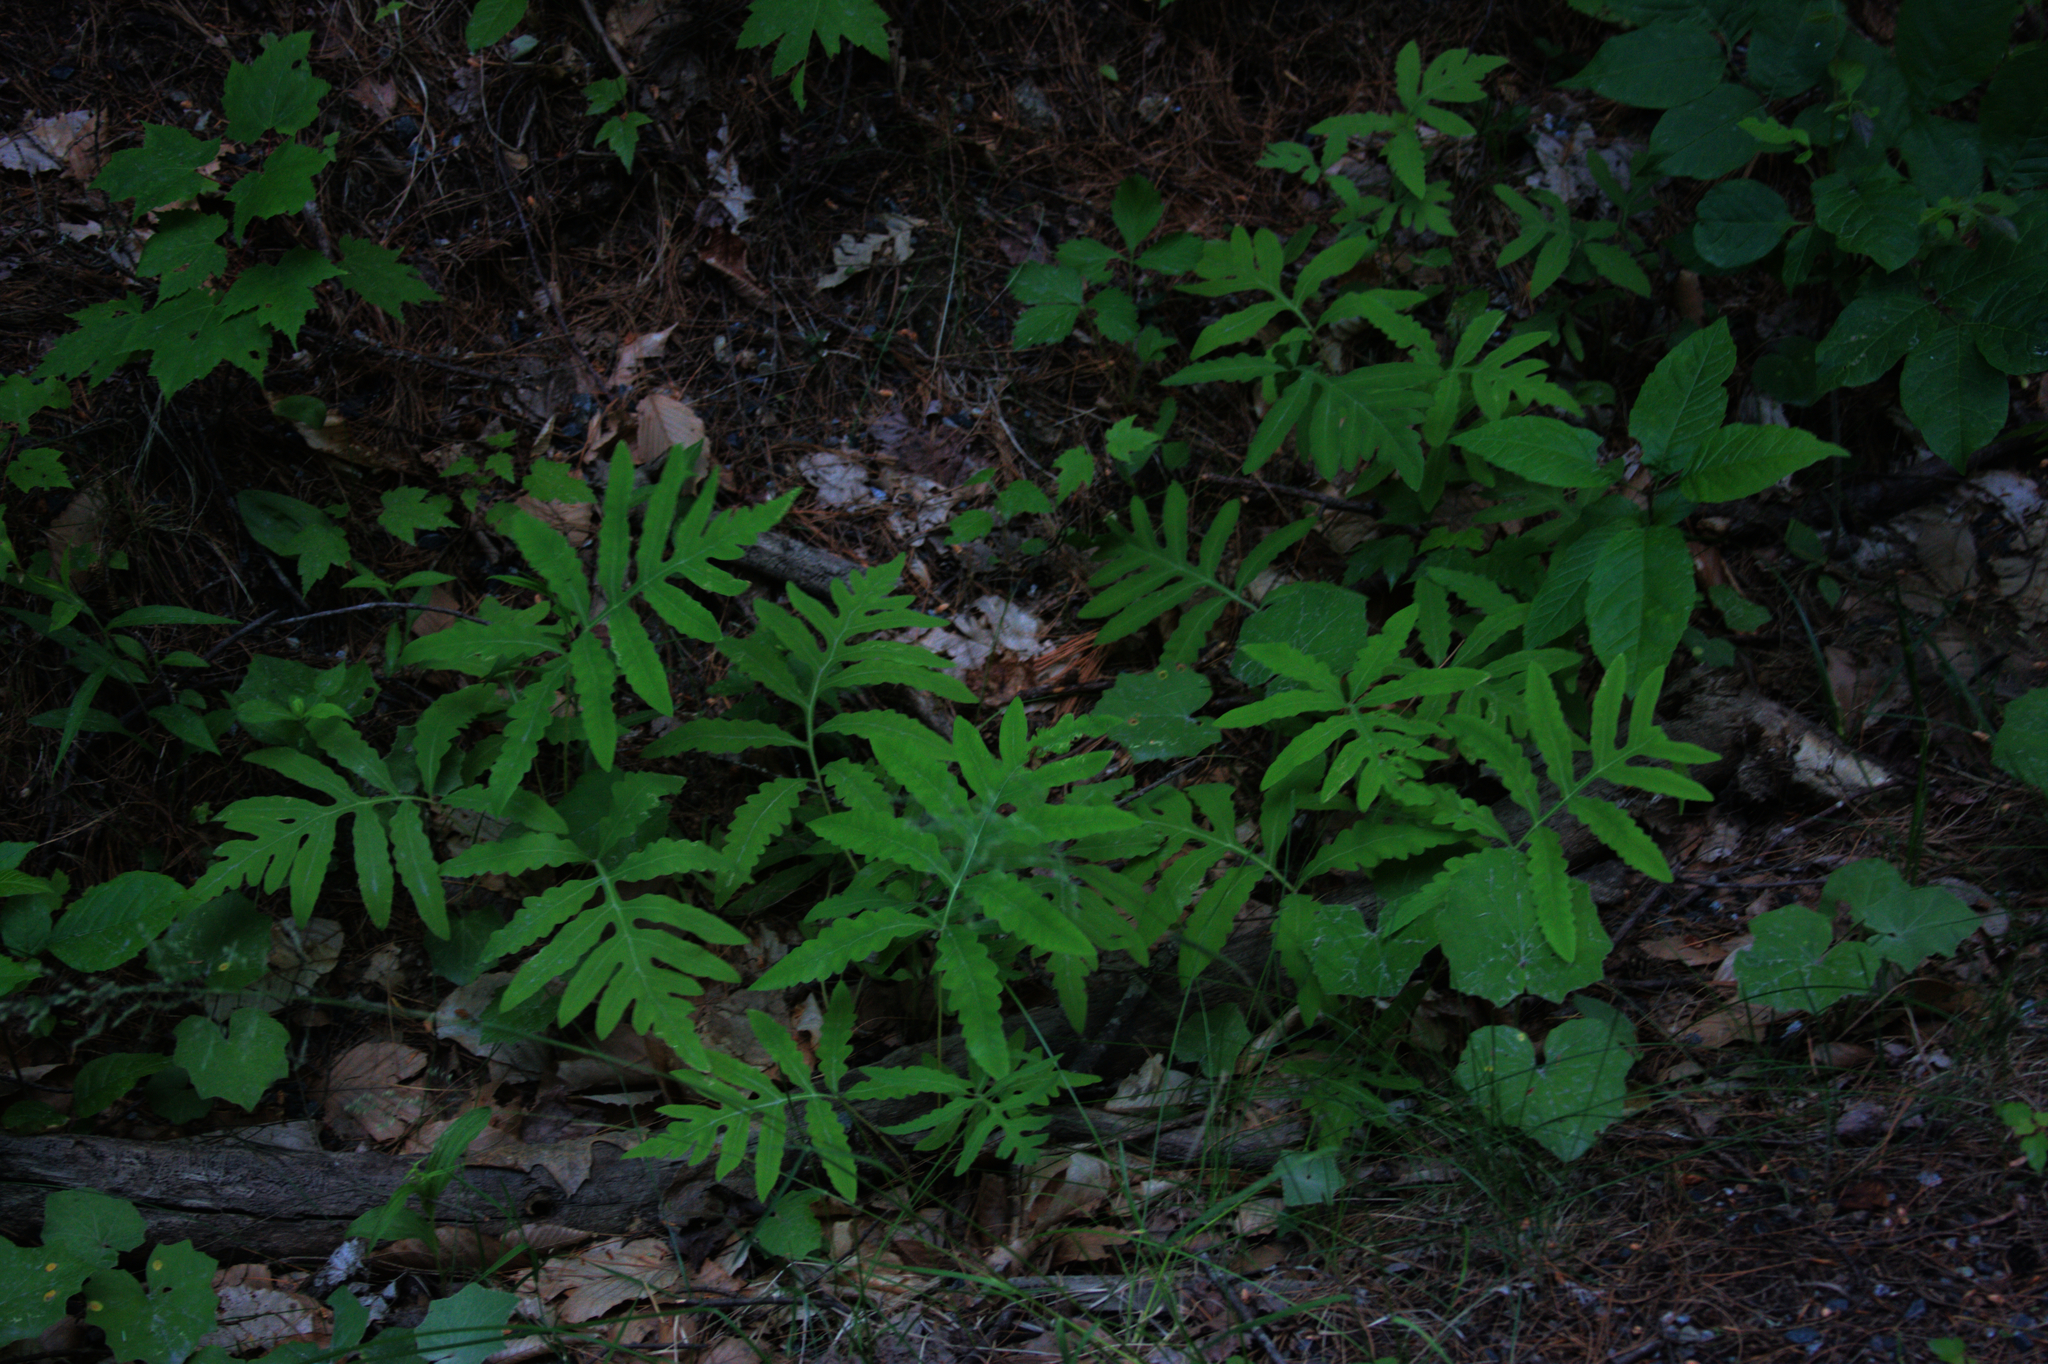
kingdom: Plantae
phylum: Tracheophyta
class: Polypodiopsida
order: Polypodiales
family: Onocleaceae
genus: Onoclea
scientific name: Onoclea sensibilis
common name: Sensitive fern
